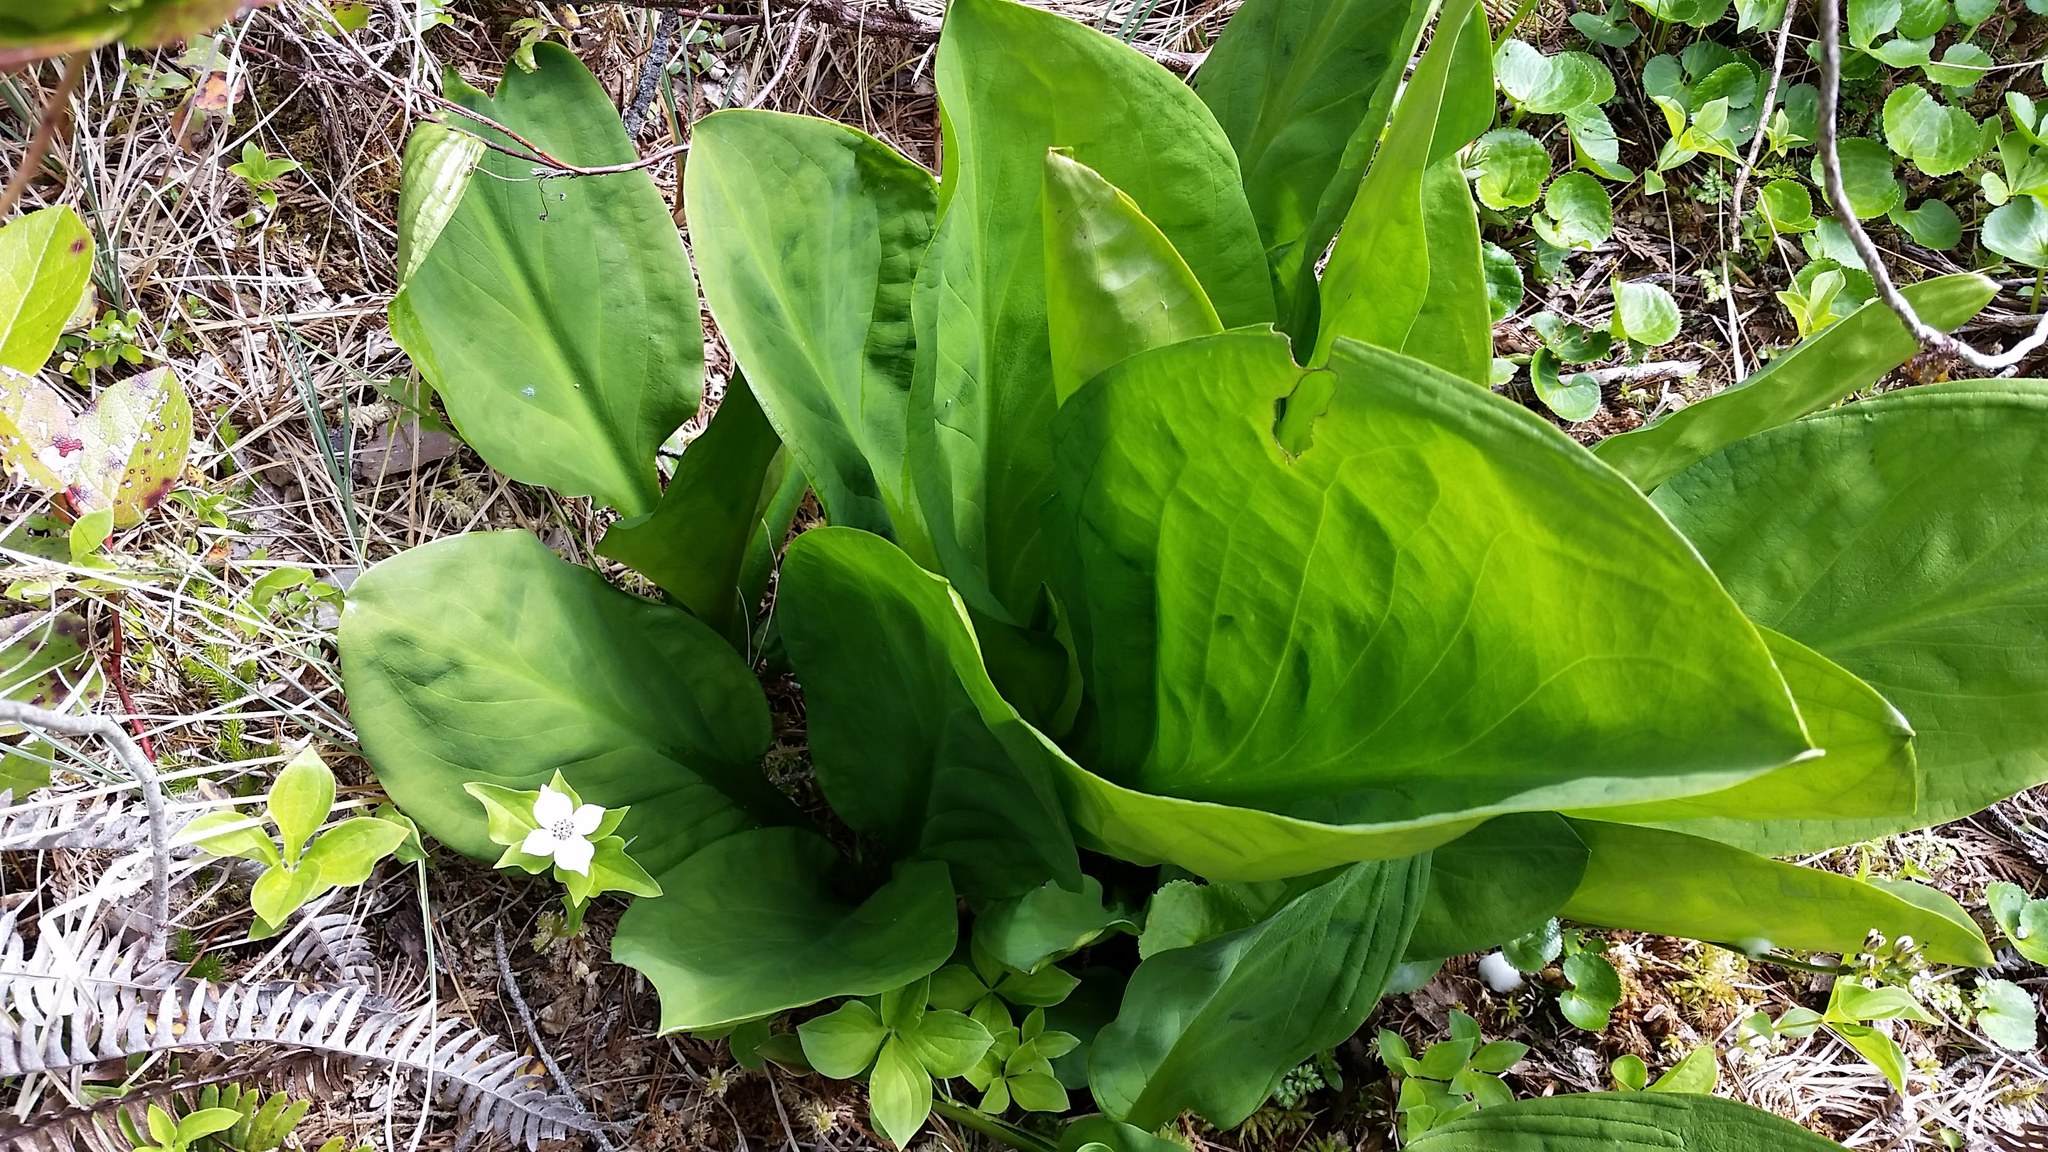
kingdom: Plantae
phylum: Tracheophyta
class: Liliopsida
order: Alismatales
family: Araceae
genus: Lysichiton
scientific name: Lysichiton americanus
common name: American skunk cabbage
